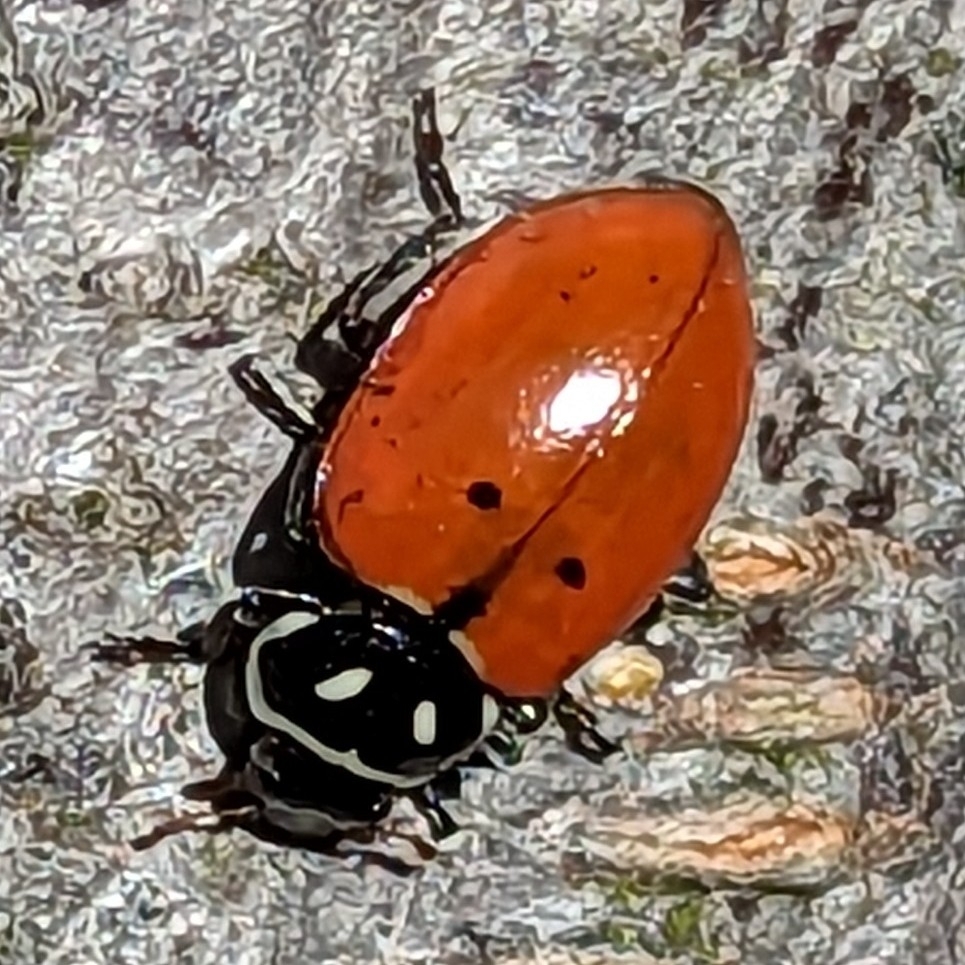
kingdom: Animalia
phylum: Arthropoda
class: Insecta
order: Coleoptera
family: Coccinellidae
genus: Hippodamia
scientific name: Hippodamia convergens
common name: Convergent lady beetle
